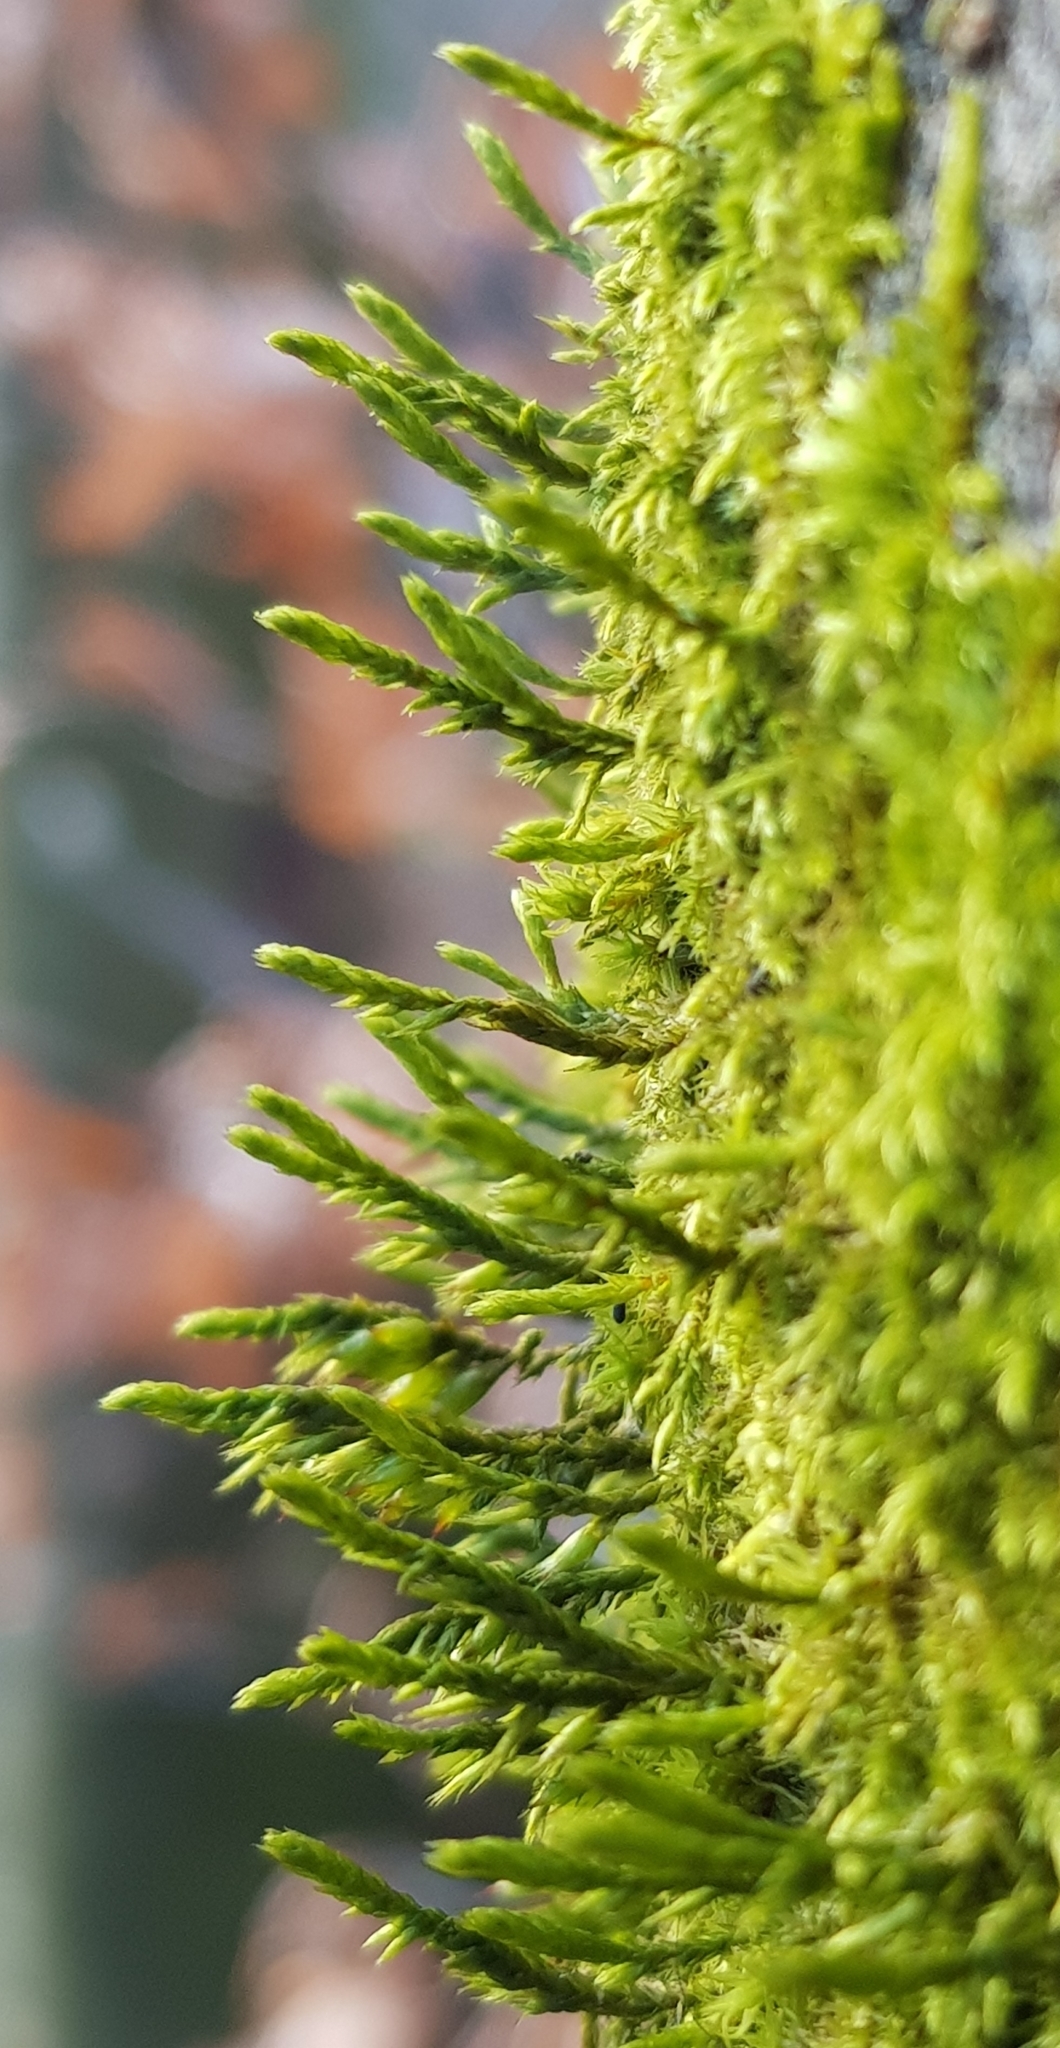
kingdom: Plantae
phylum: Bryophyta
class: Bryopsida
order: Hypnales
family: Cryphaeaceae
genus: Cryphaea
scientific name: Cryphaea heteromalla
